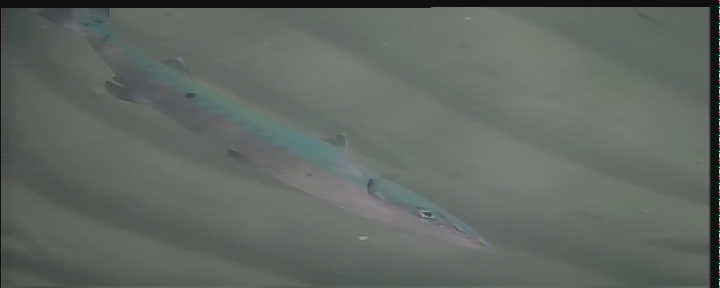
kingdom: Animalia
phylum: Chordata
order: Perciformes
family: Sphyraenidae
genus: Sphyraena
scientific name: Sphyraena barracuda
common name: Great barracuda
